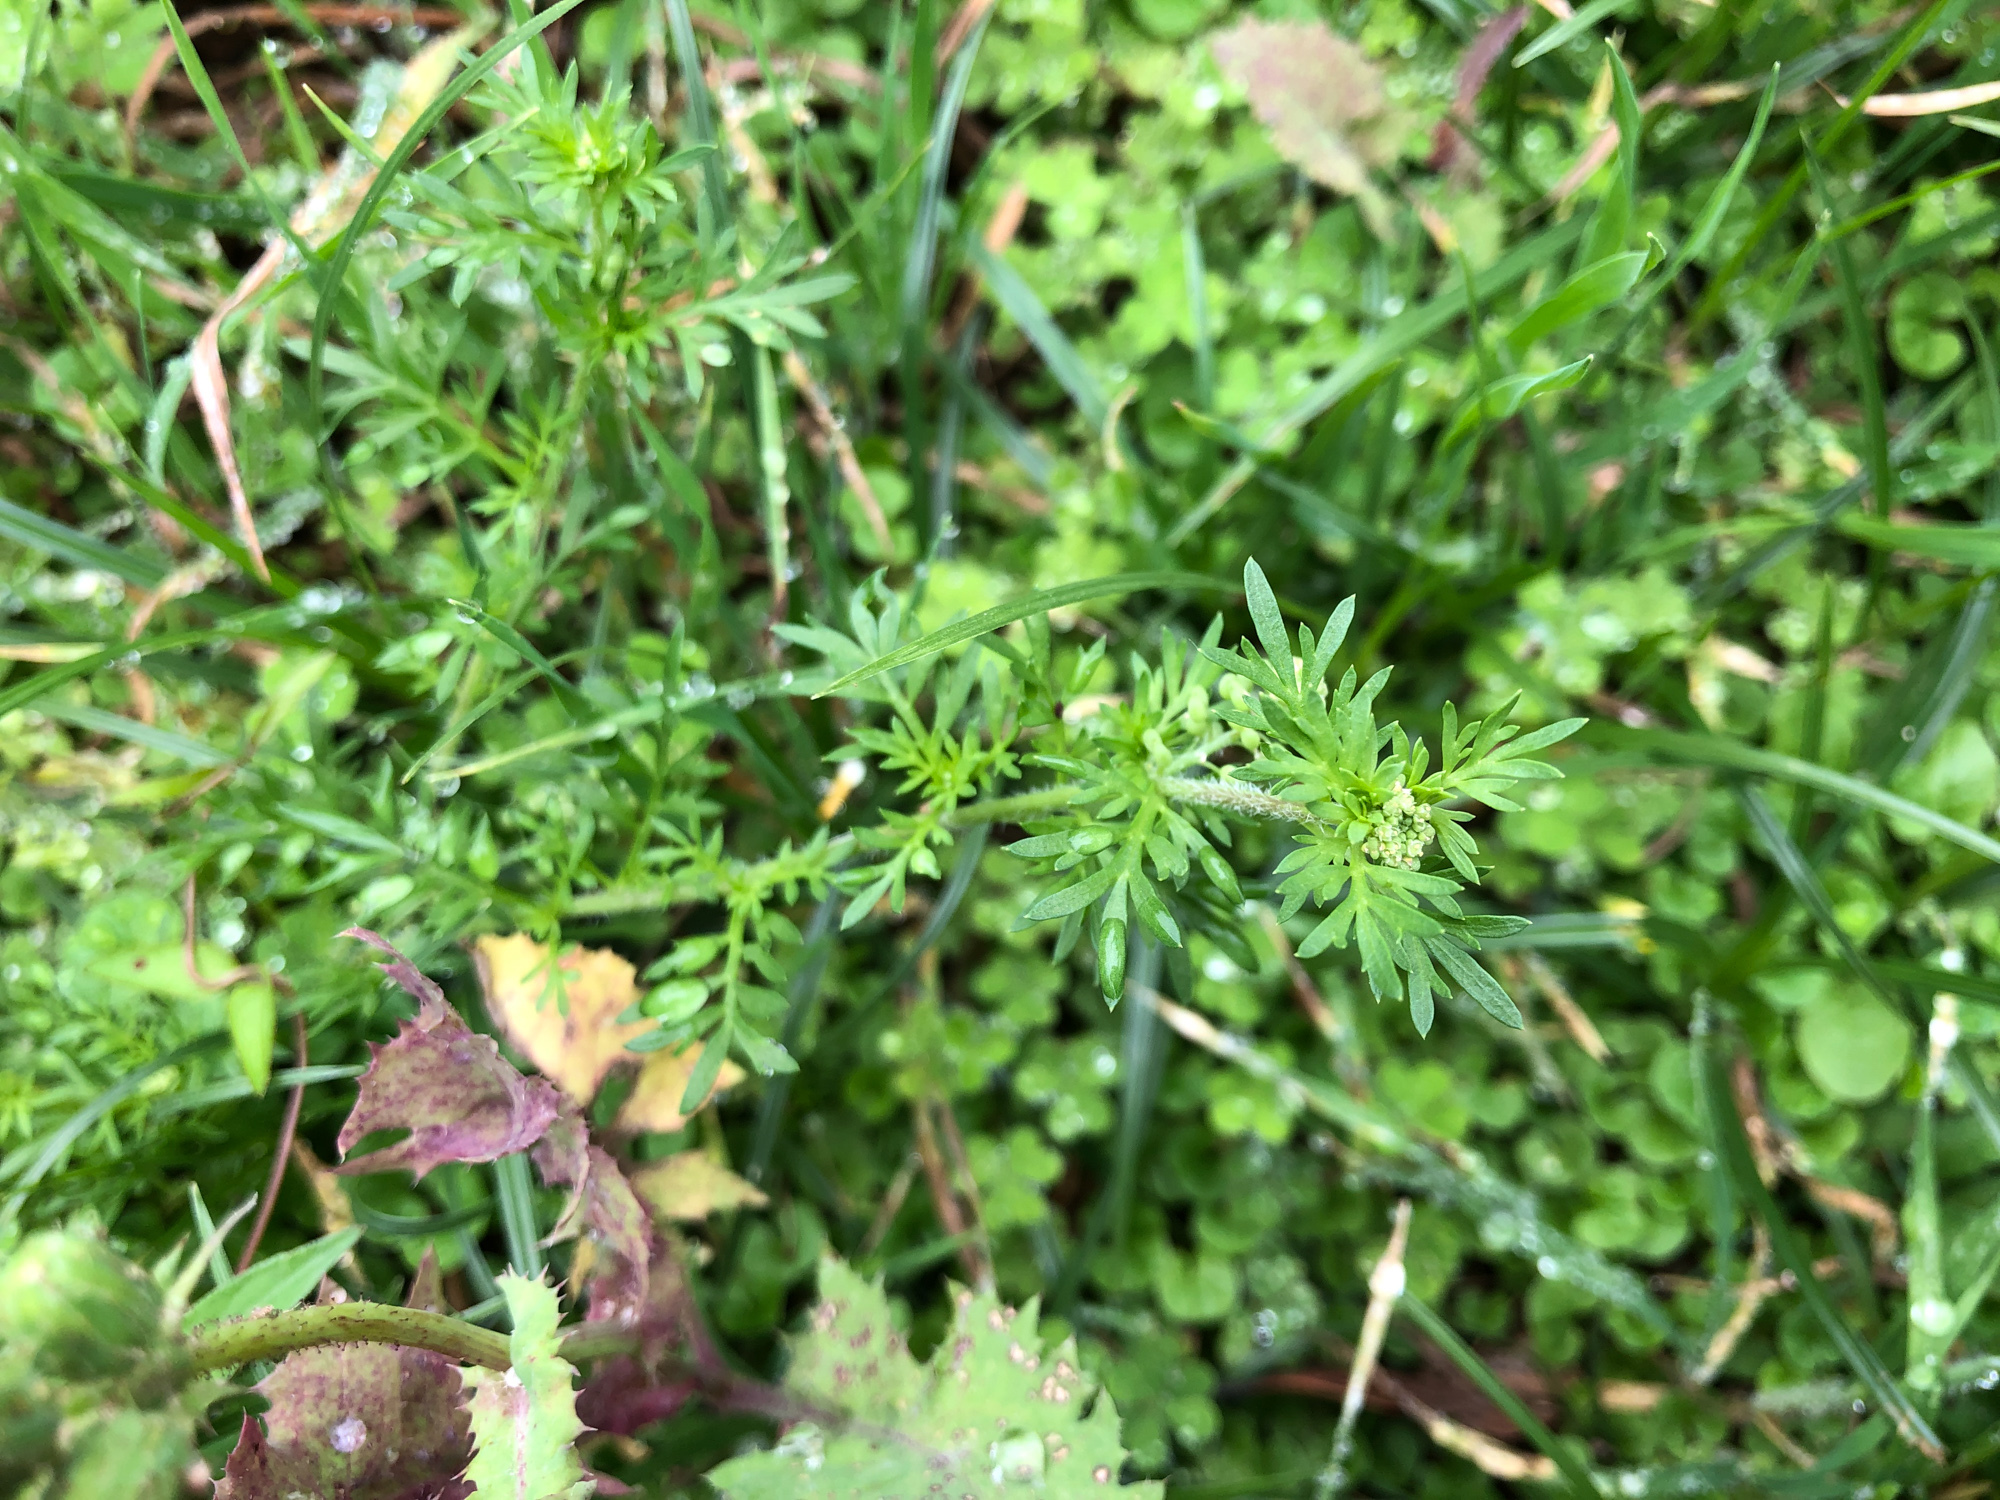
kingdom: Plantae
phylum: Tracheophyta
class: Magnoliopsida
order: Brassicales
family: Brassicaceae
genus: Lepidium
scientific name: Lepidium didymum
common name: Lesser swinecress
